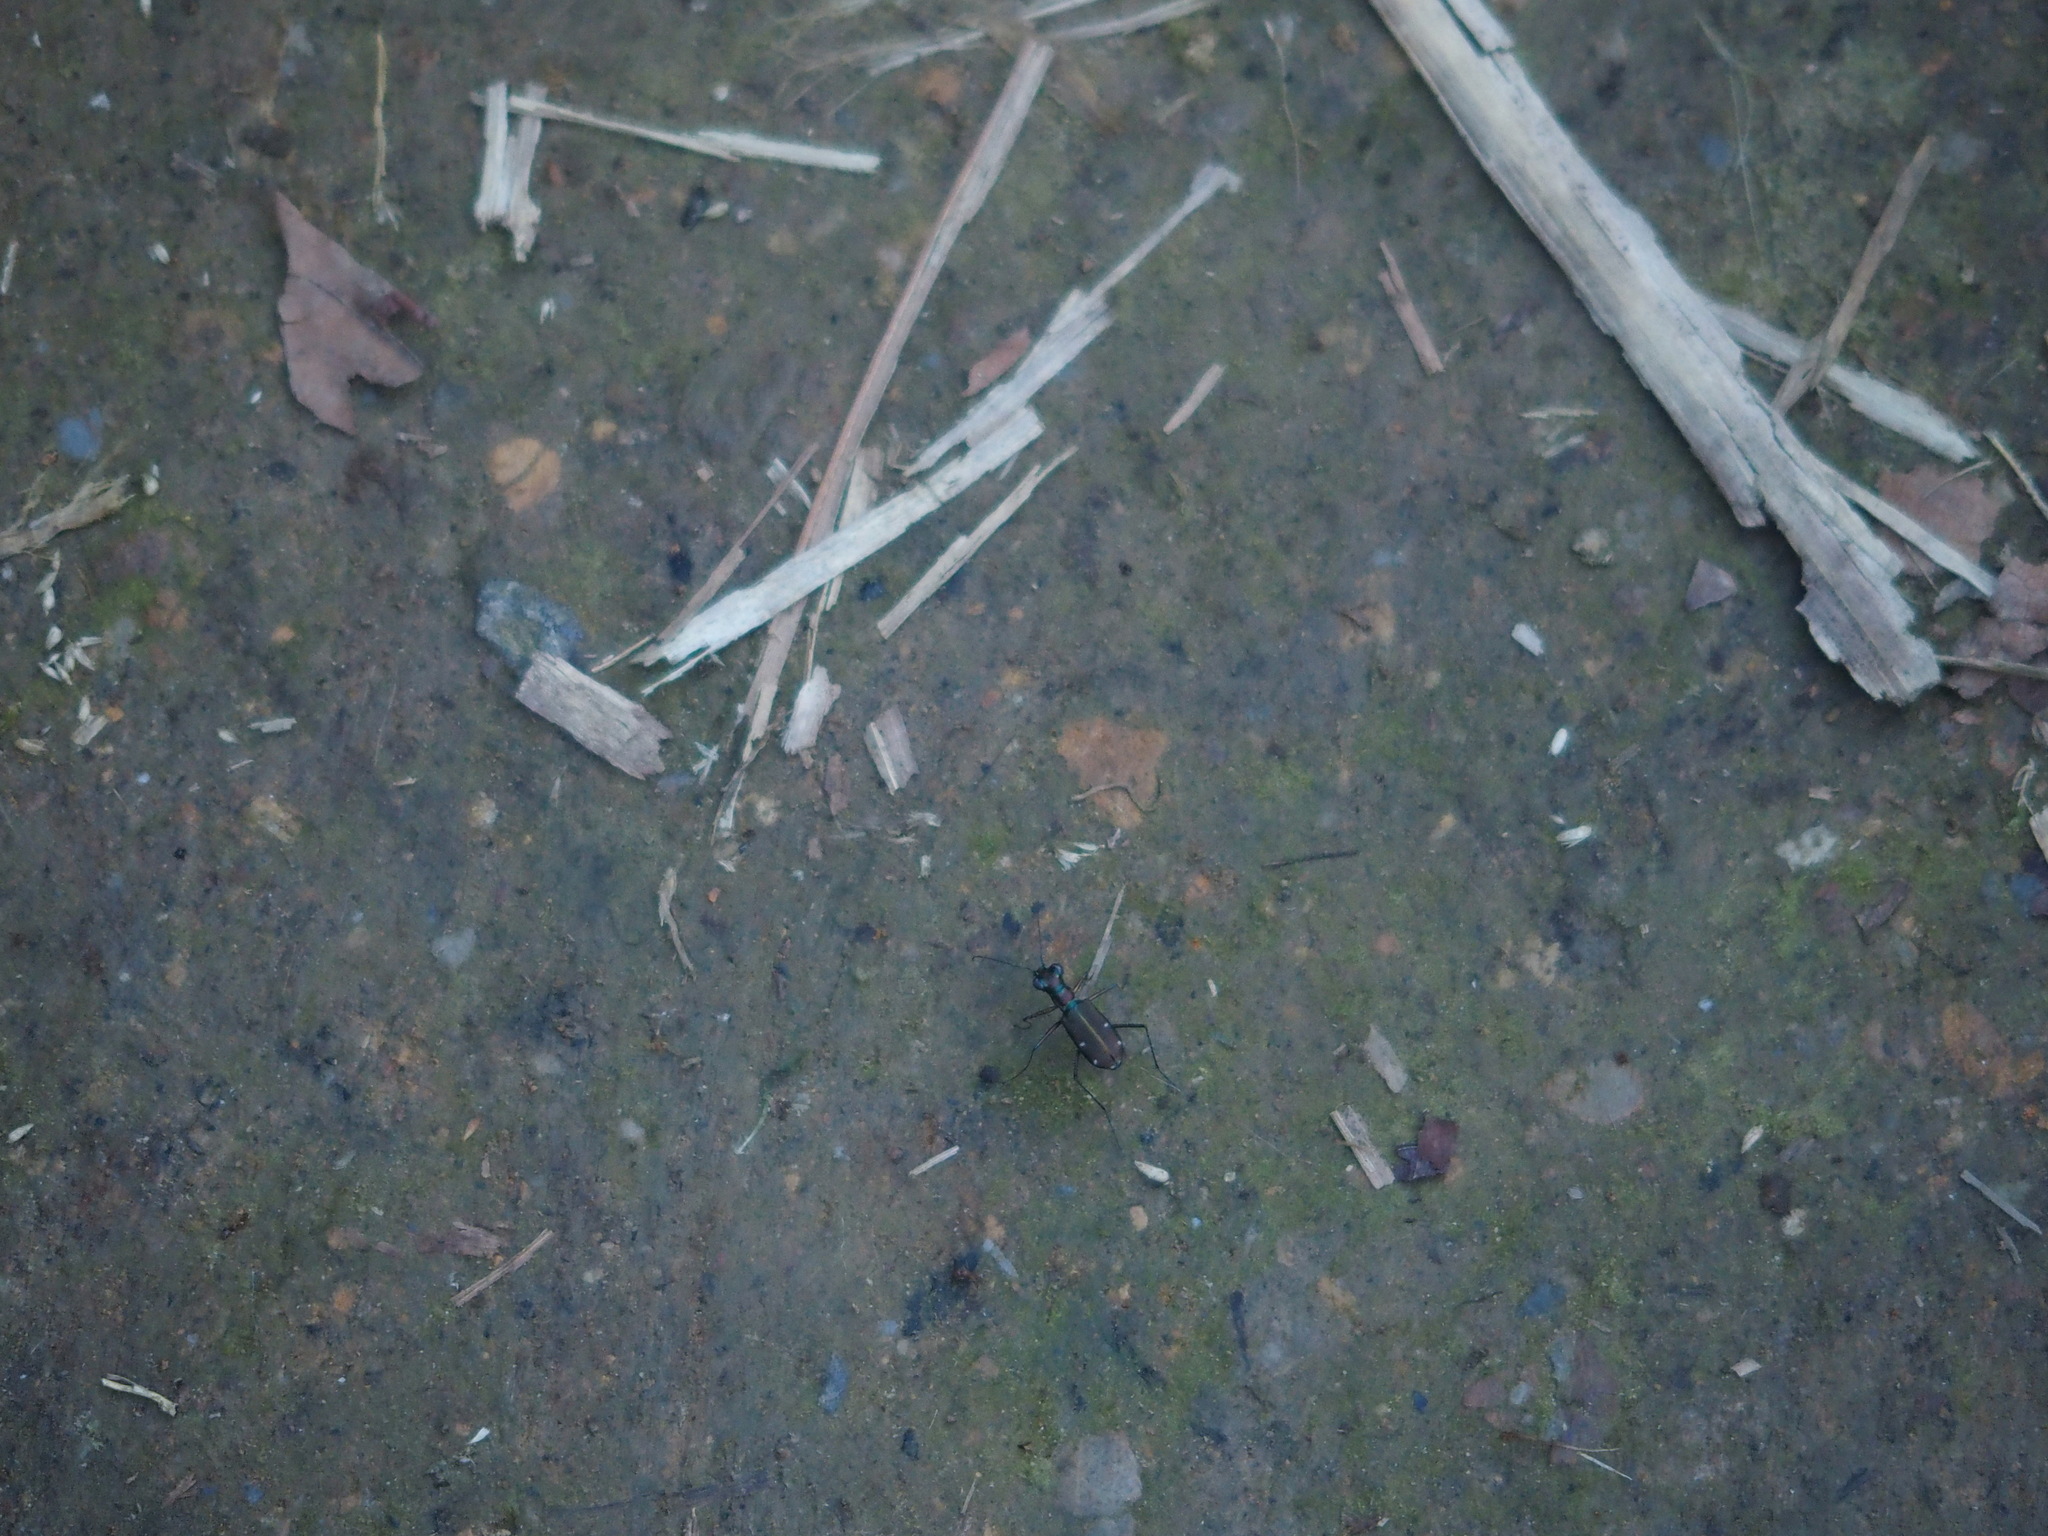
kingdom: Animalia
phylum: Arthropoda
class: Insecta
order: Coleoptera
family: Carabidae
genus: Cylindera
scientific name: Cylindera psilica
